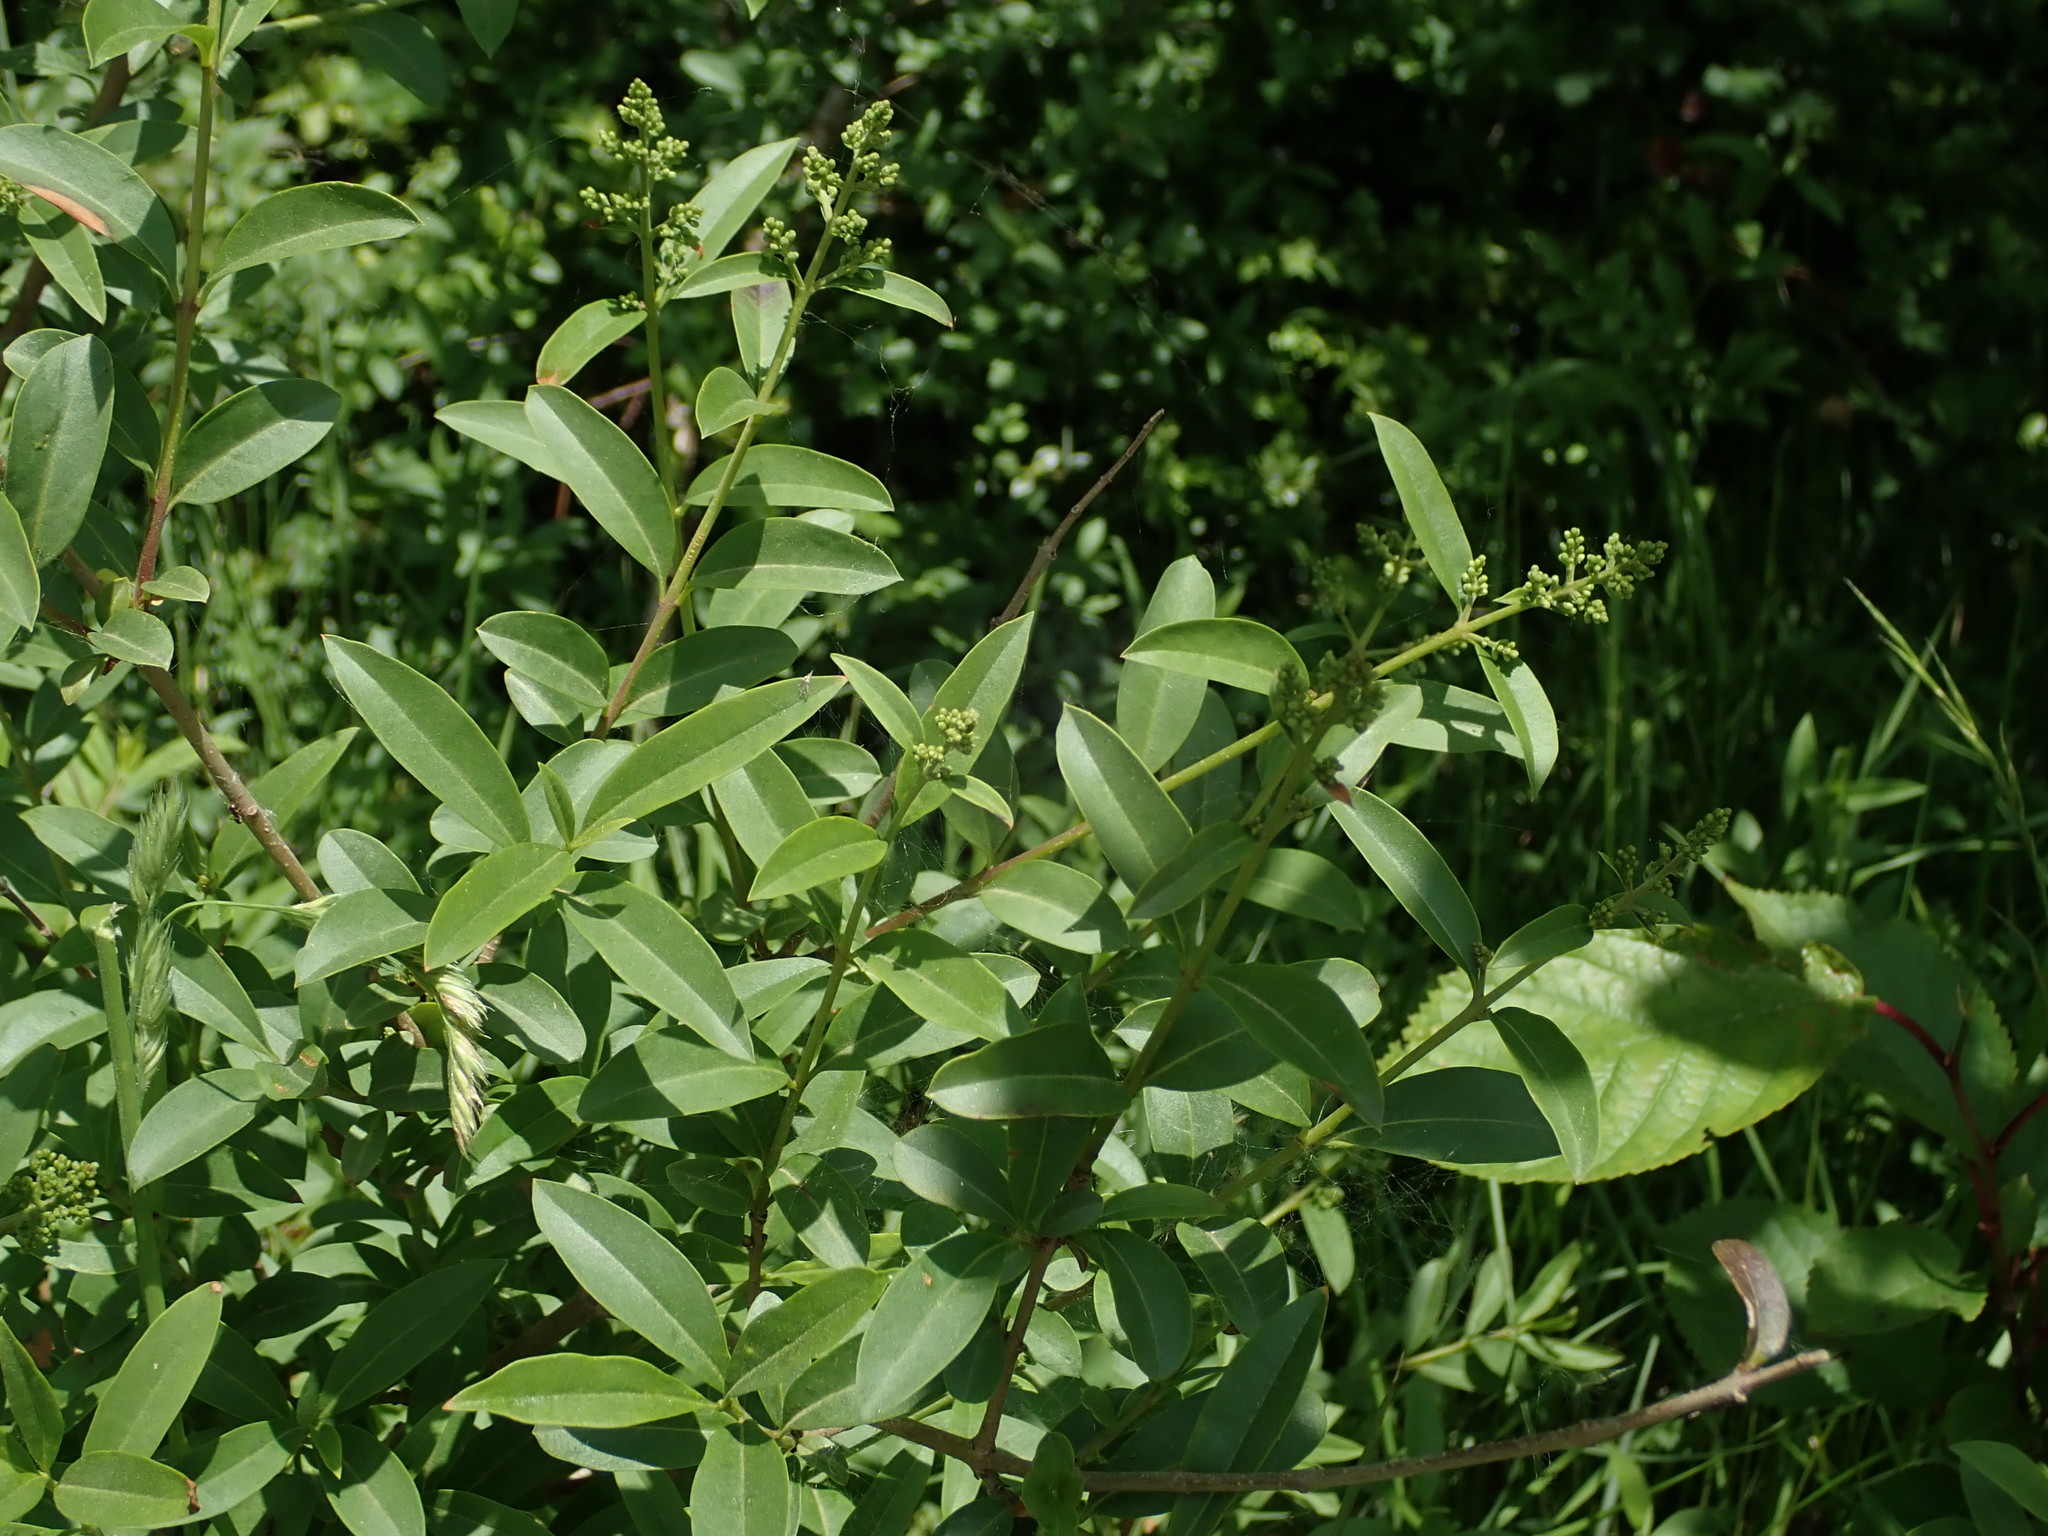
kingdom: Plantae
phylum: Tracheophyta
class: Magnoliopsida
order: Lamiales
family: Oleaceae
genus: Ligustrum
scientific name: Ligustrum vulgare
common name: Wild privet
